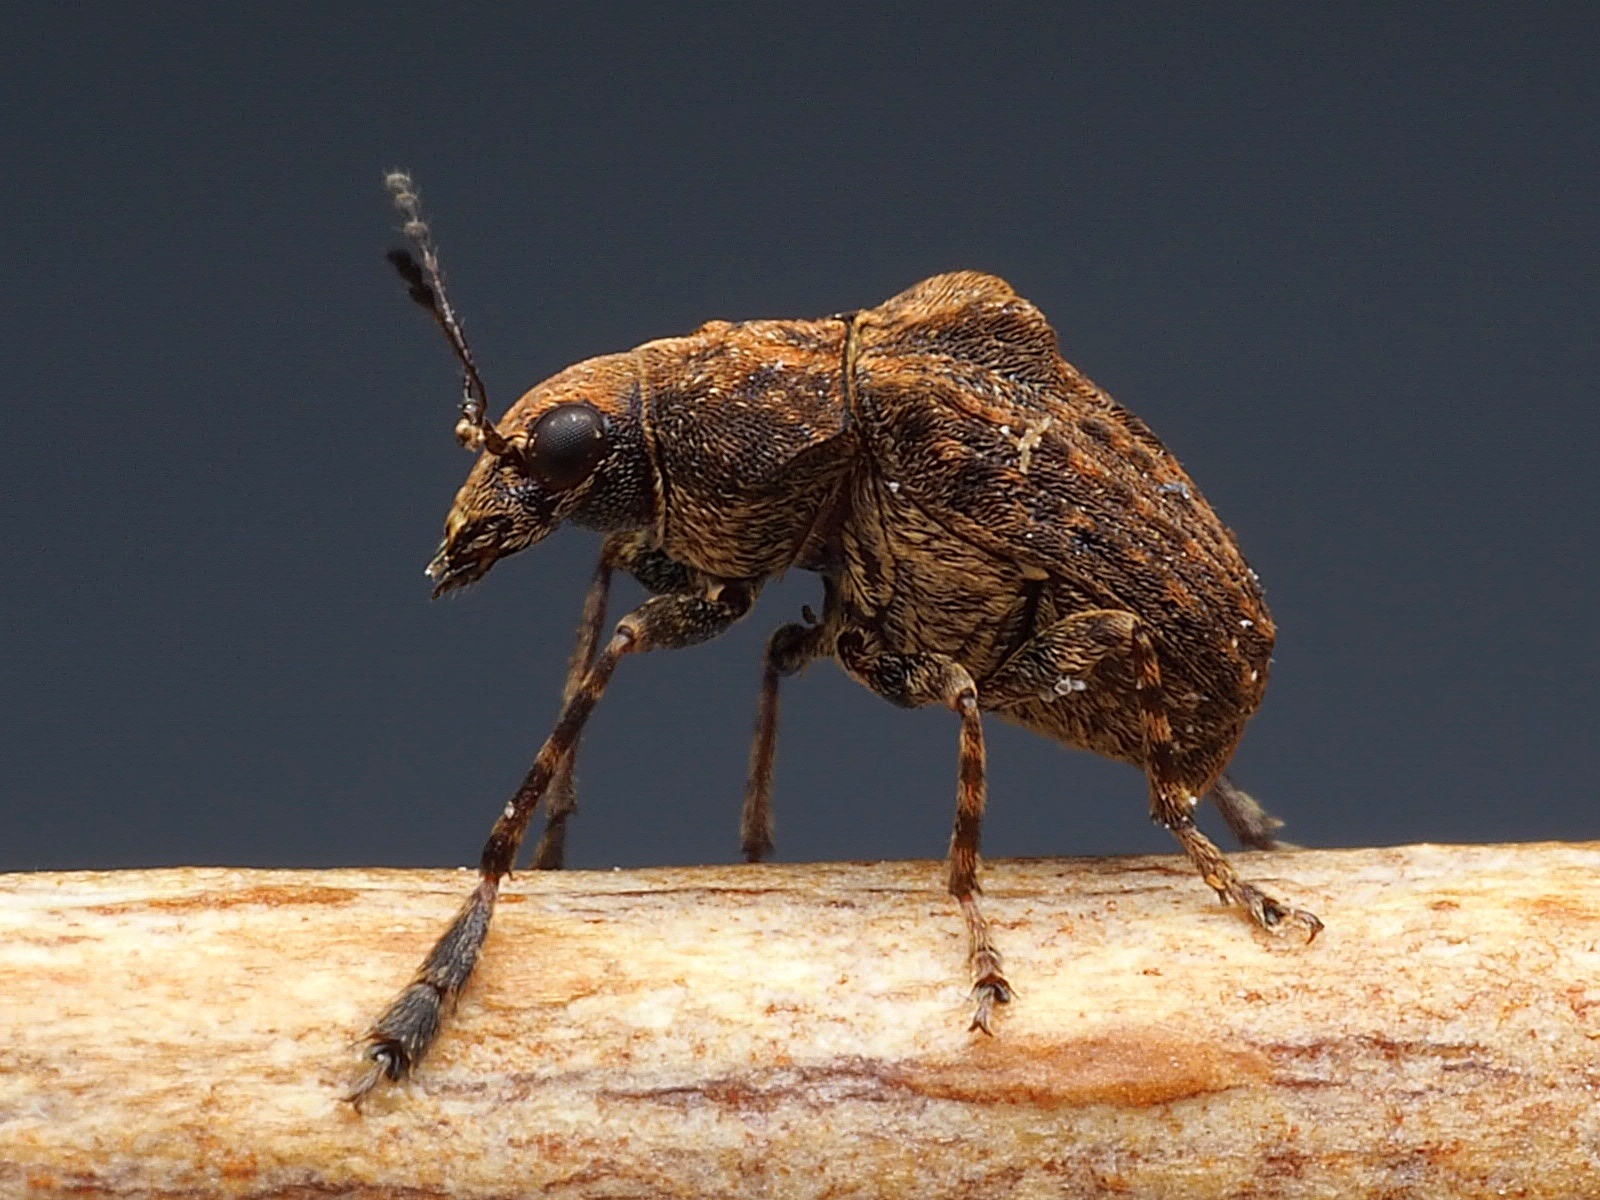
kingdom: Animalia
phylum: Arthropoda
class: Insecta
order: Coleoptera
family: Anthribidae
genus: Araecerus
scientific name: Araecerus
